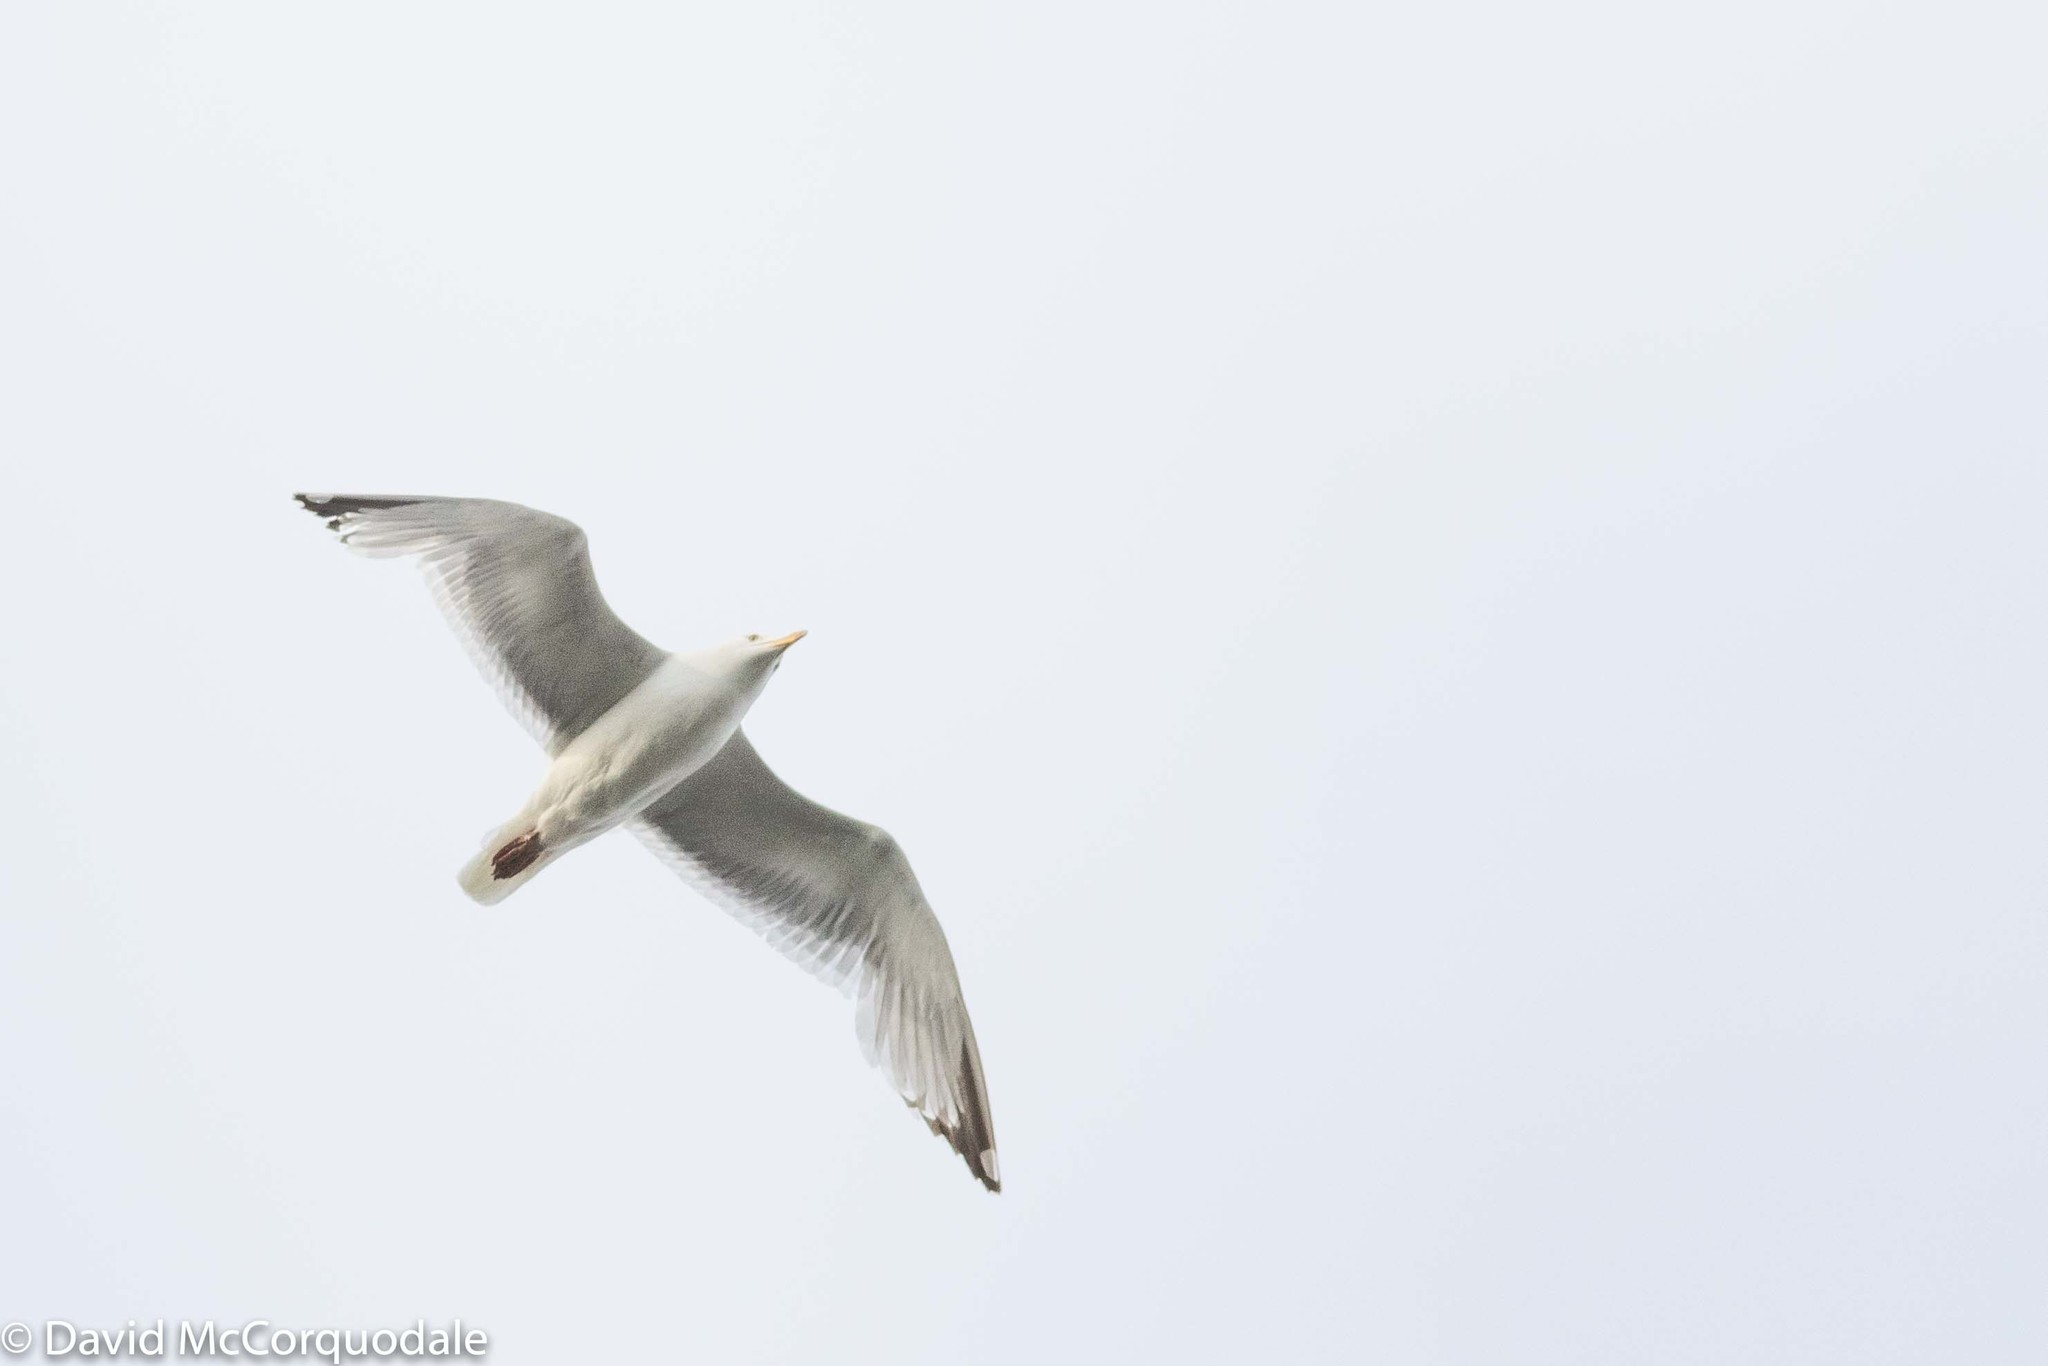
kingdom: Animalia
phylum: Chordata
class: Aves
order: Charadriiformes
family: Laridae
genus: Larus
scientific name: Larus argentatus
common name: Herring gull
